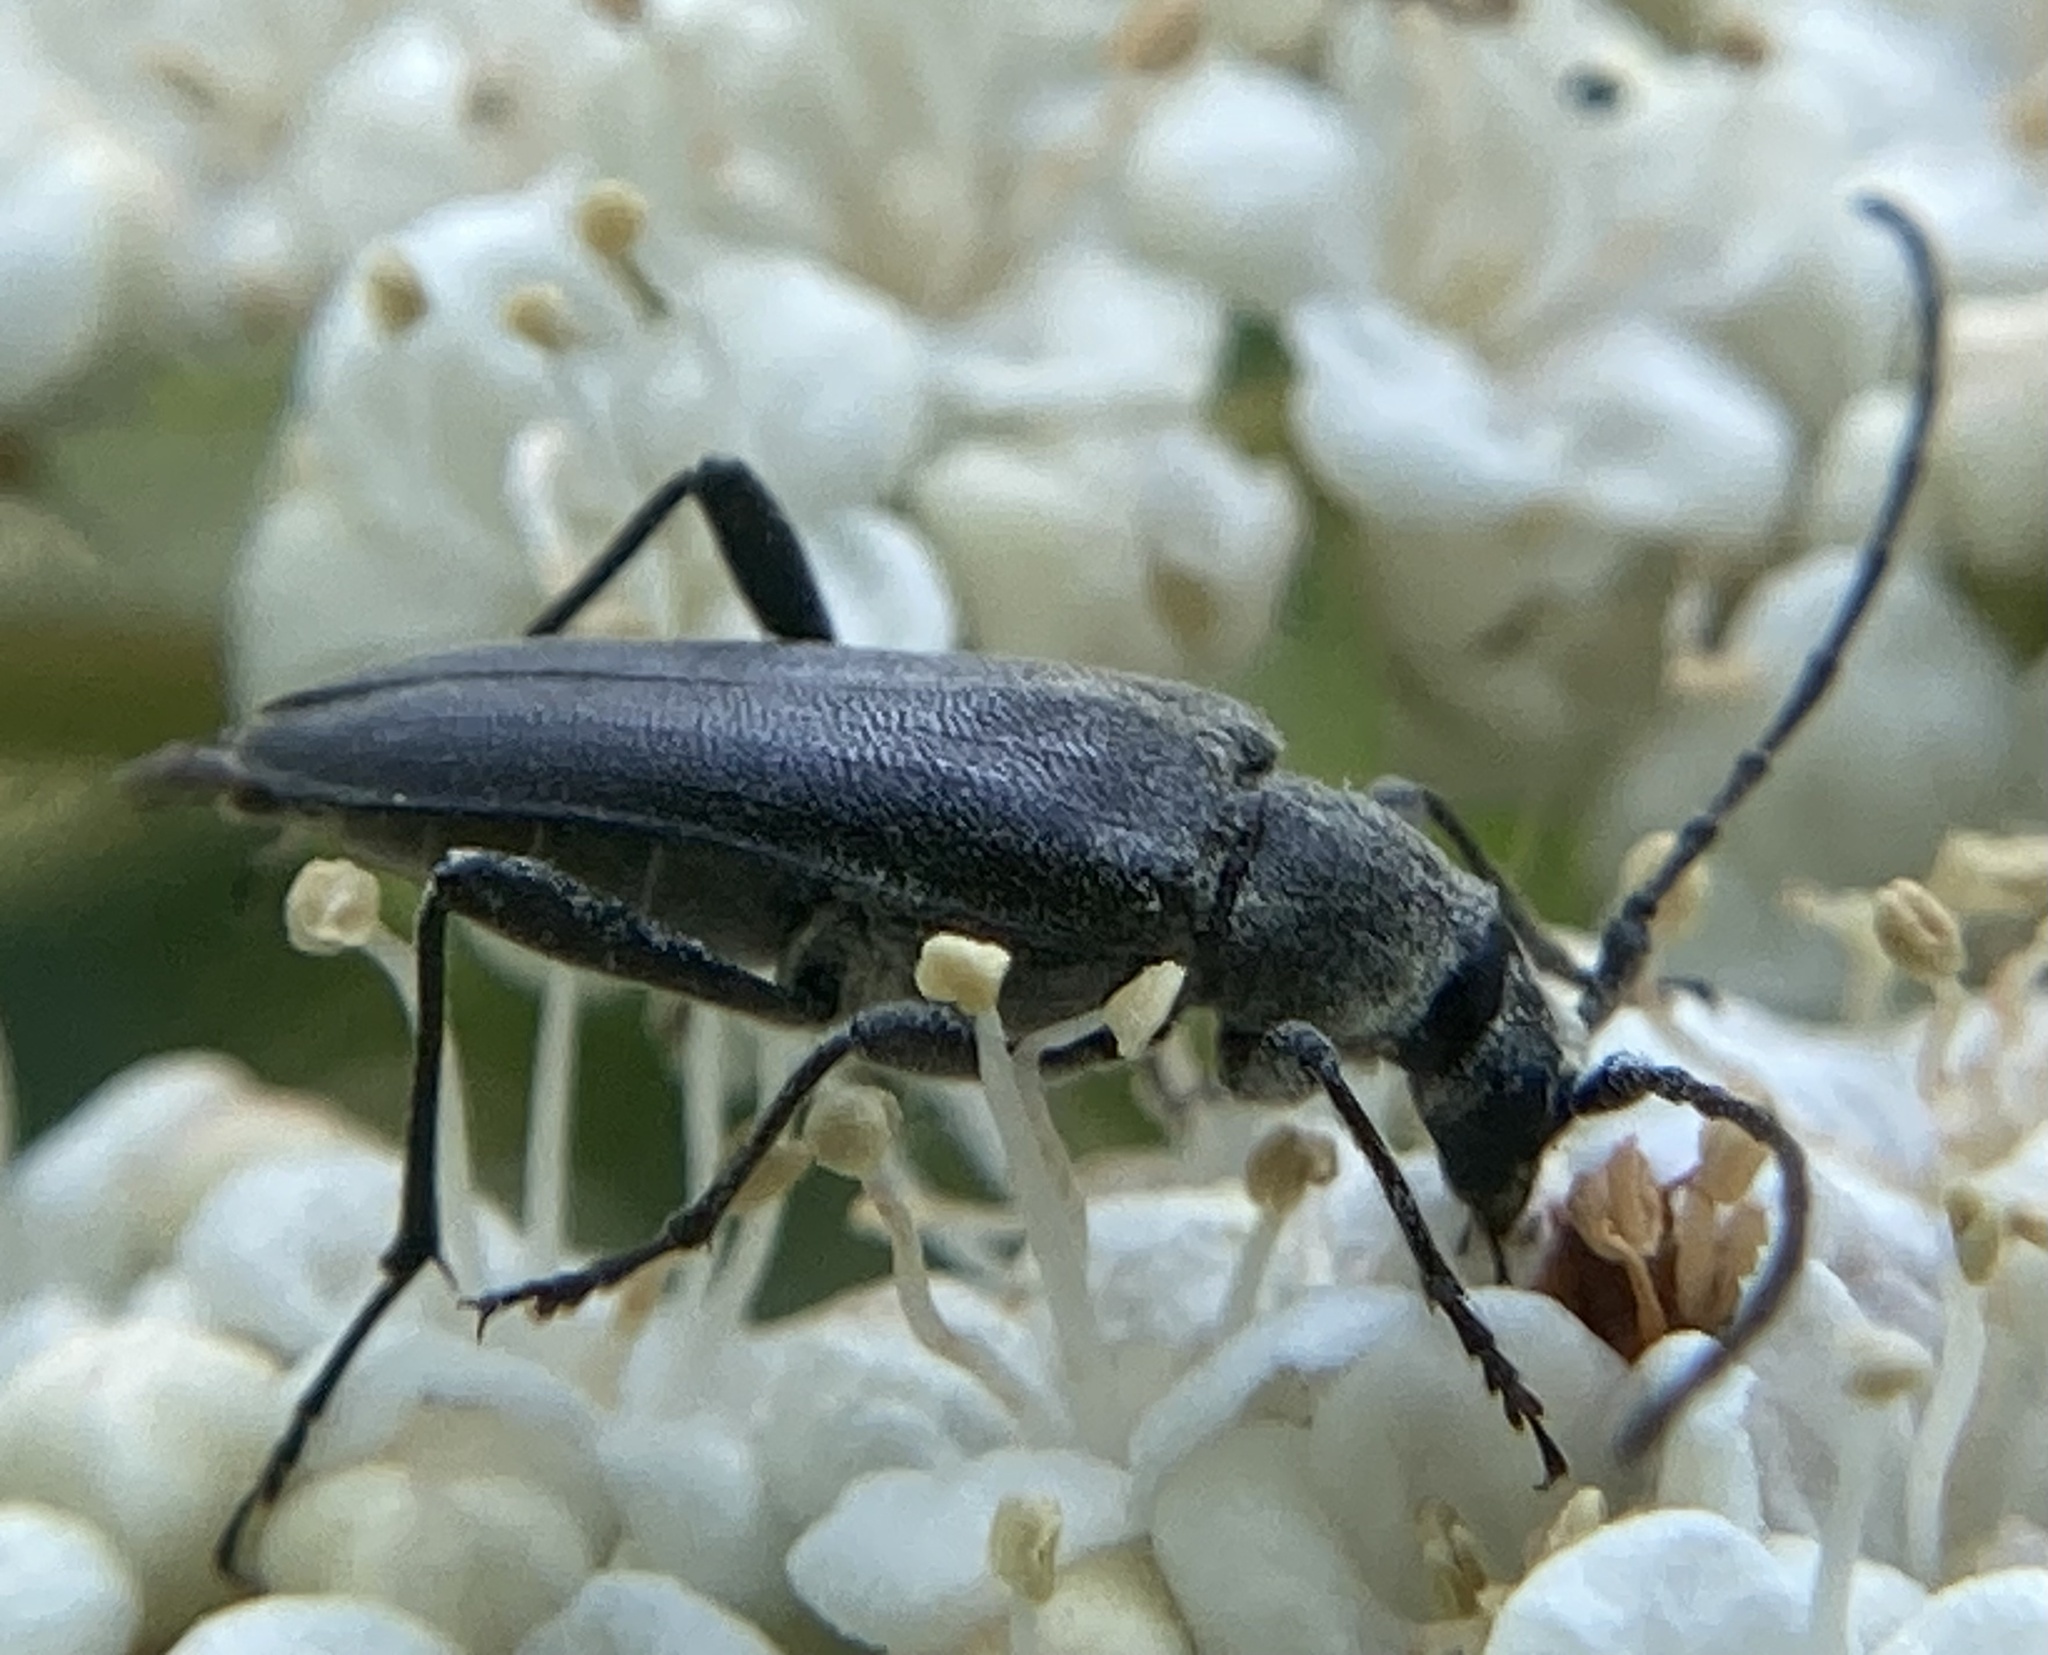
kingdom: Animalia
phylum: Arthropoda
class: Insecta
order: Coleoptera
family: Cerambycidae
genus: Trachysida
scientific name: Trachysida mutabilis
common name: Changeable flower longhorn
